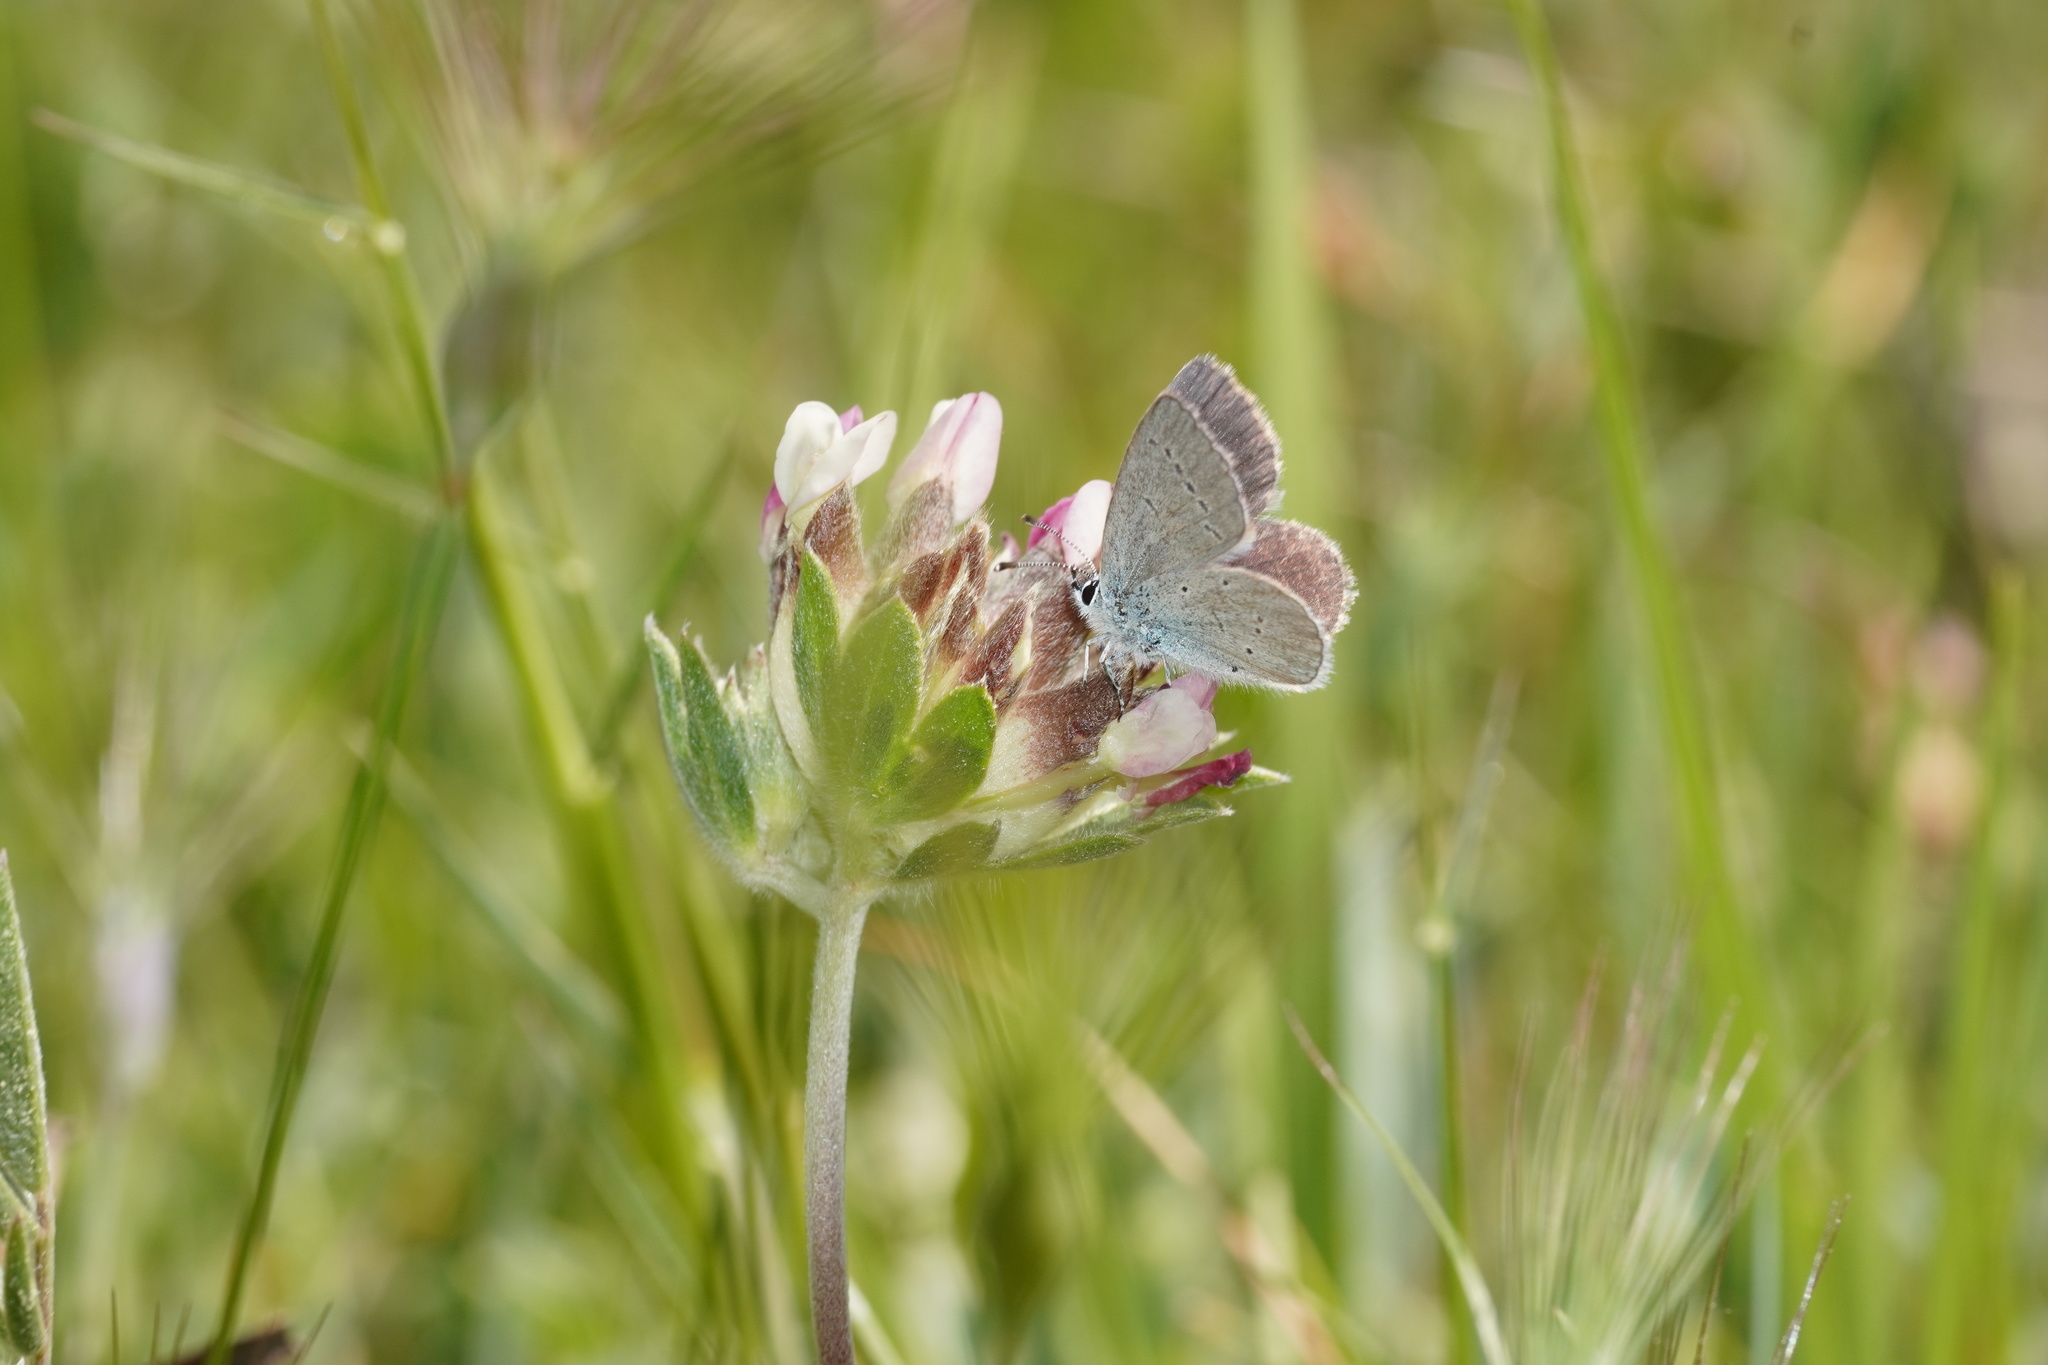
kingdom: Animalia
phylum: Arthropoda
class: Insecta
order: Lepidoptera
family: Lycaenidae
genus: Cupido
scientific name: Cupido lorquinii
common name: Lorquin’s blue
